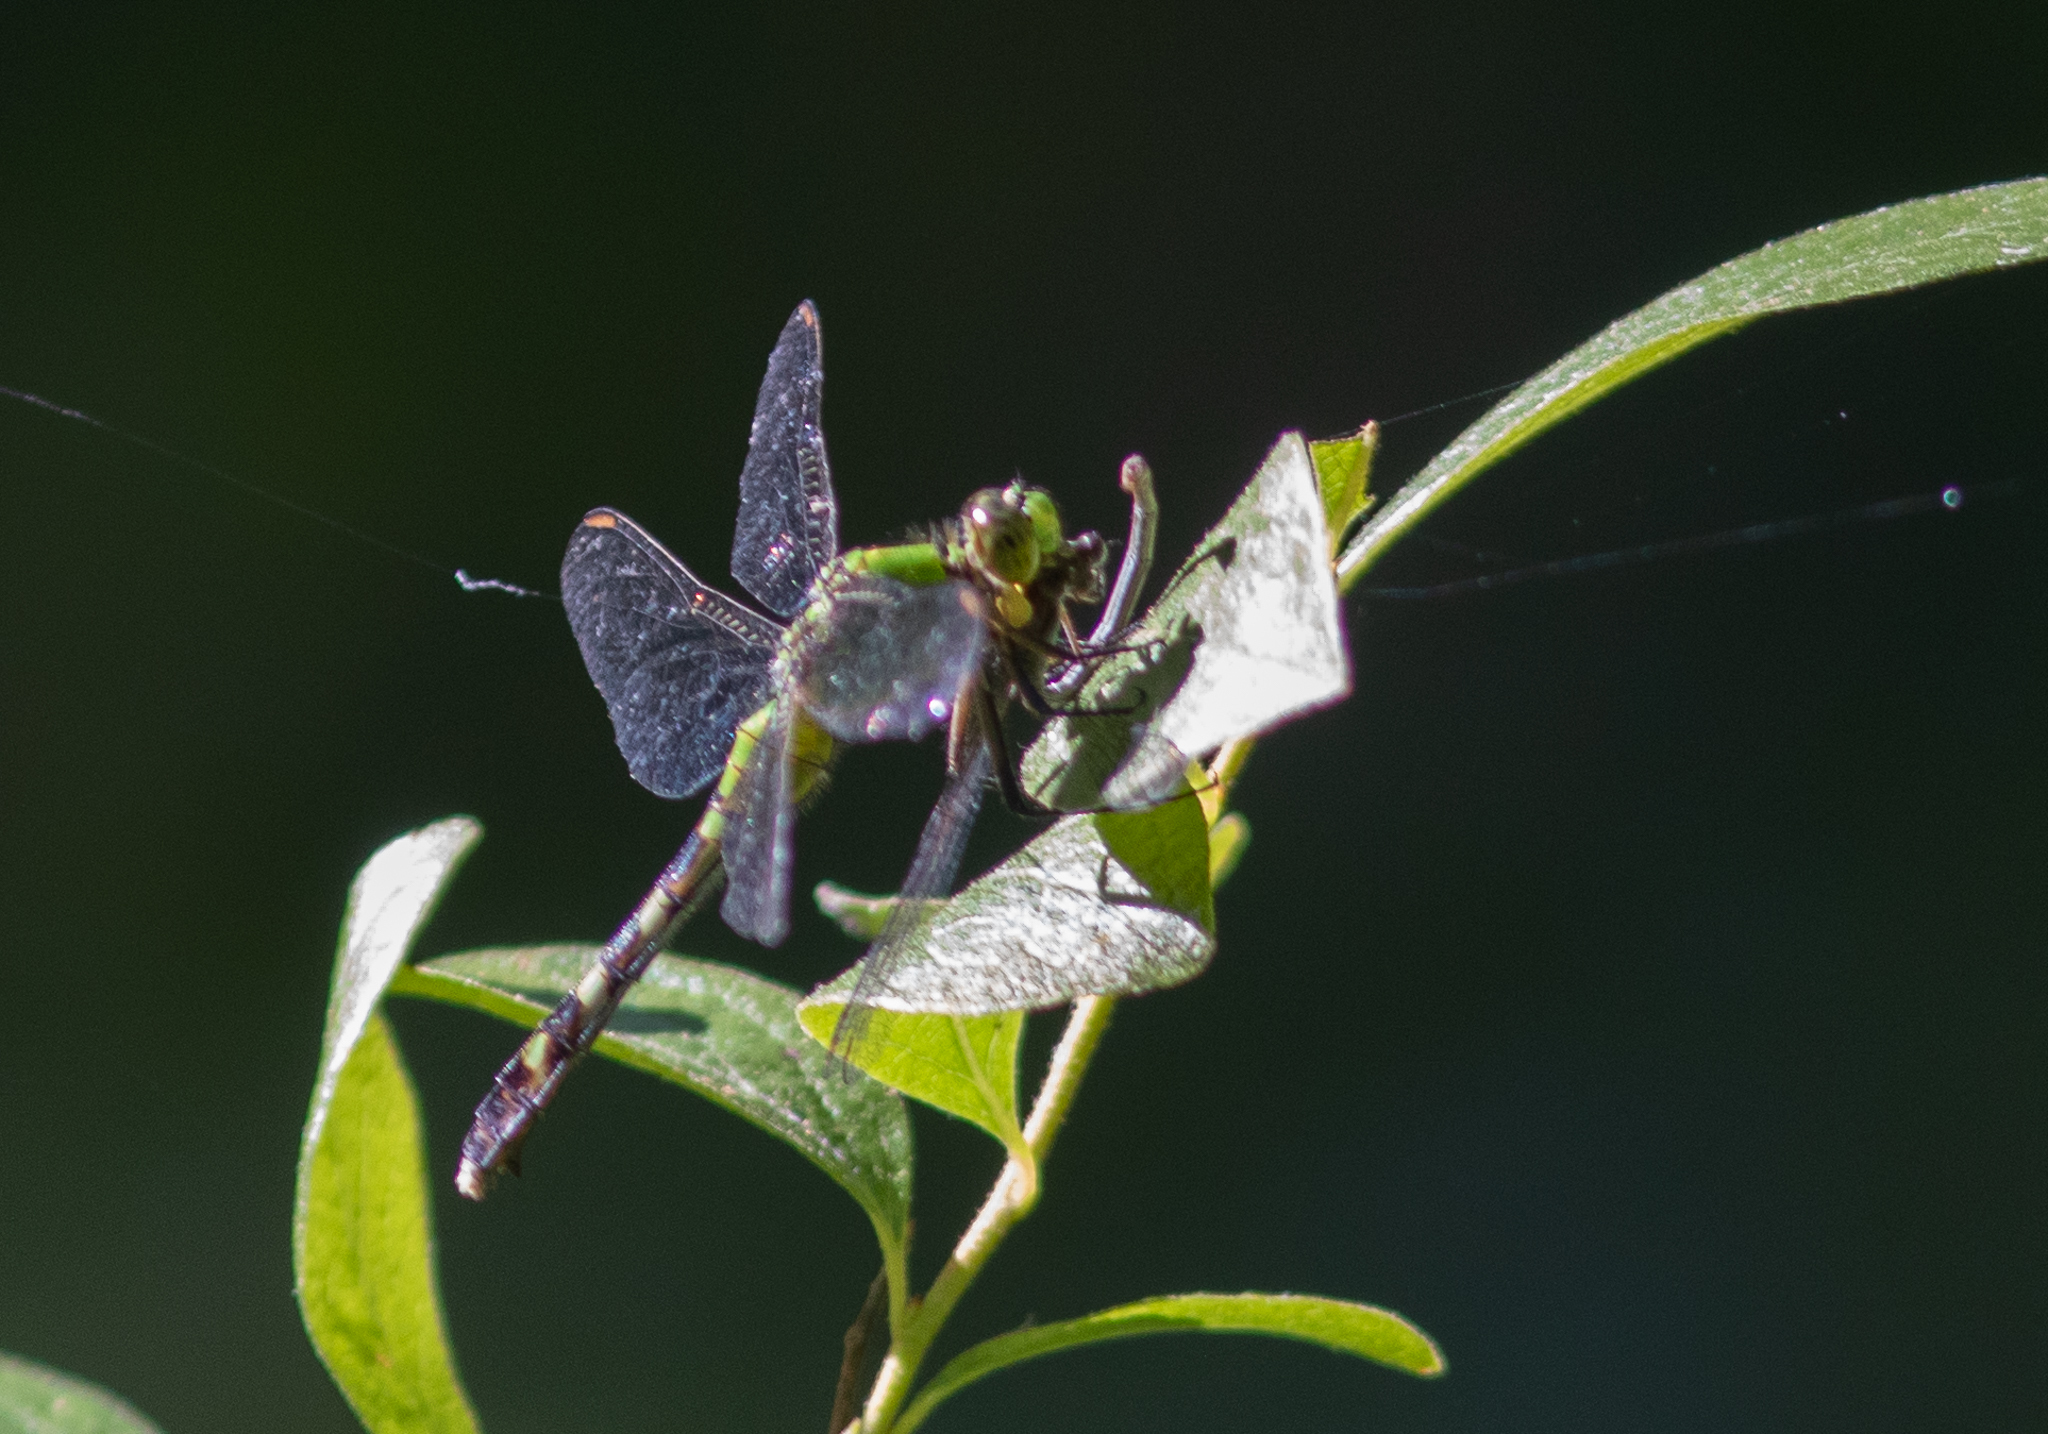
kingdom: Animalia
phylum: Arthropoda
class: Insecta
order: Odonata
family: Libellulidae
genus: Erythemis
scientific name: Erythemis simplicicollis
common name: Eastern pondhawk
